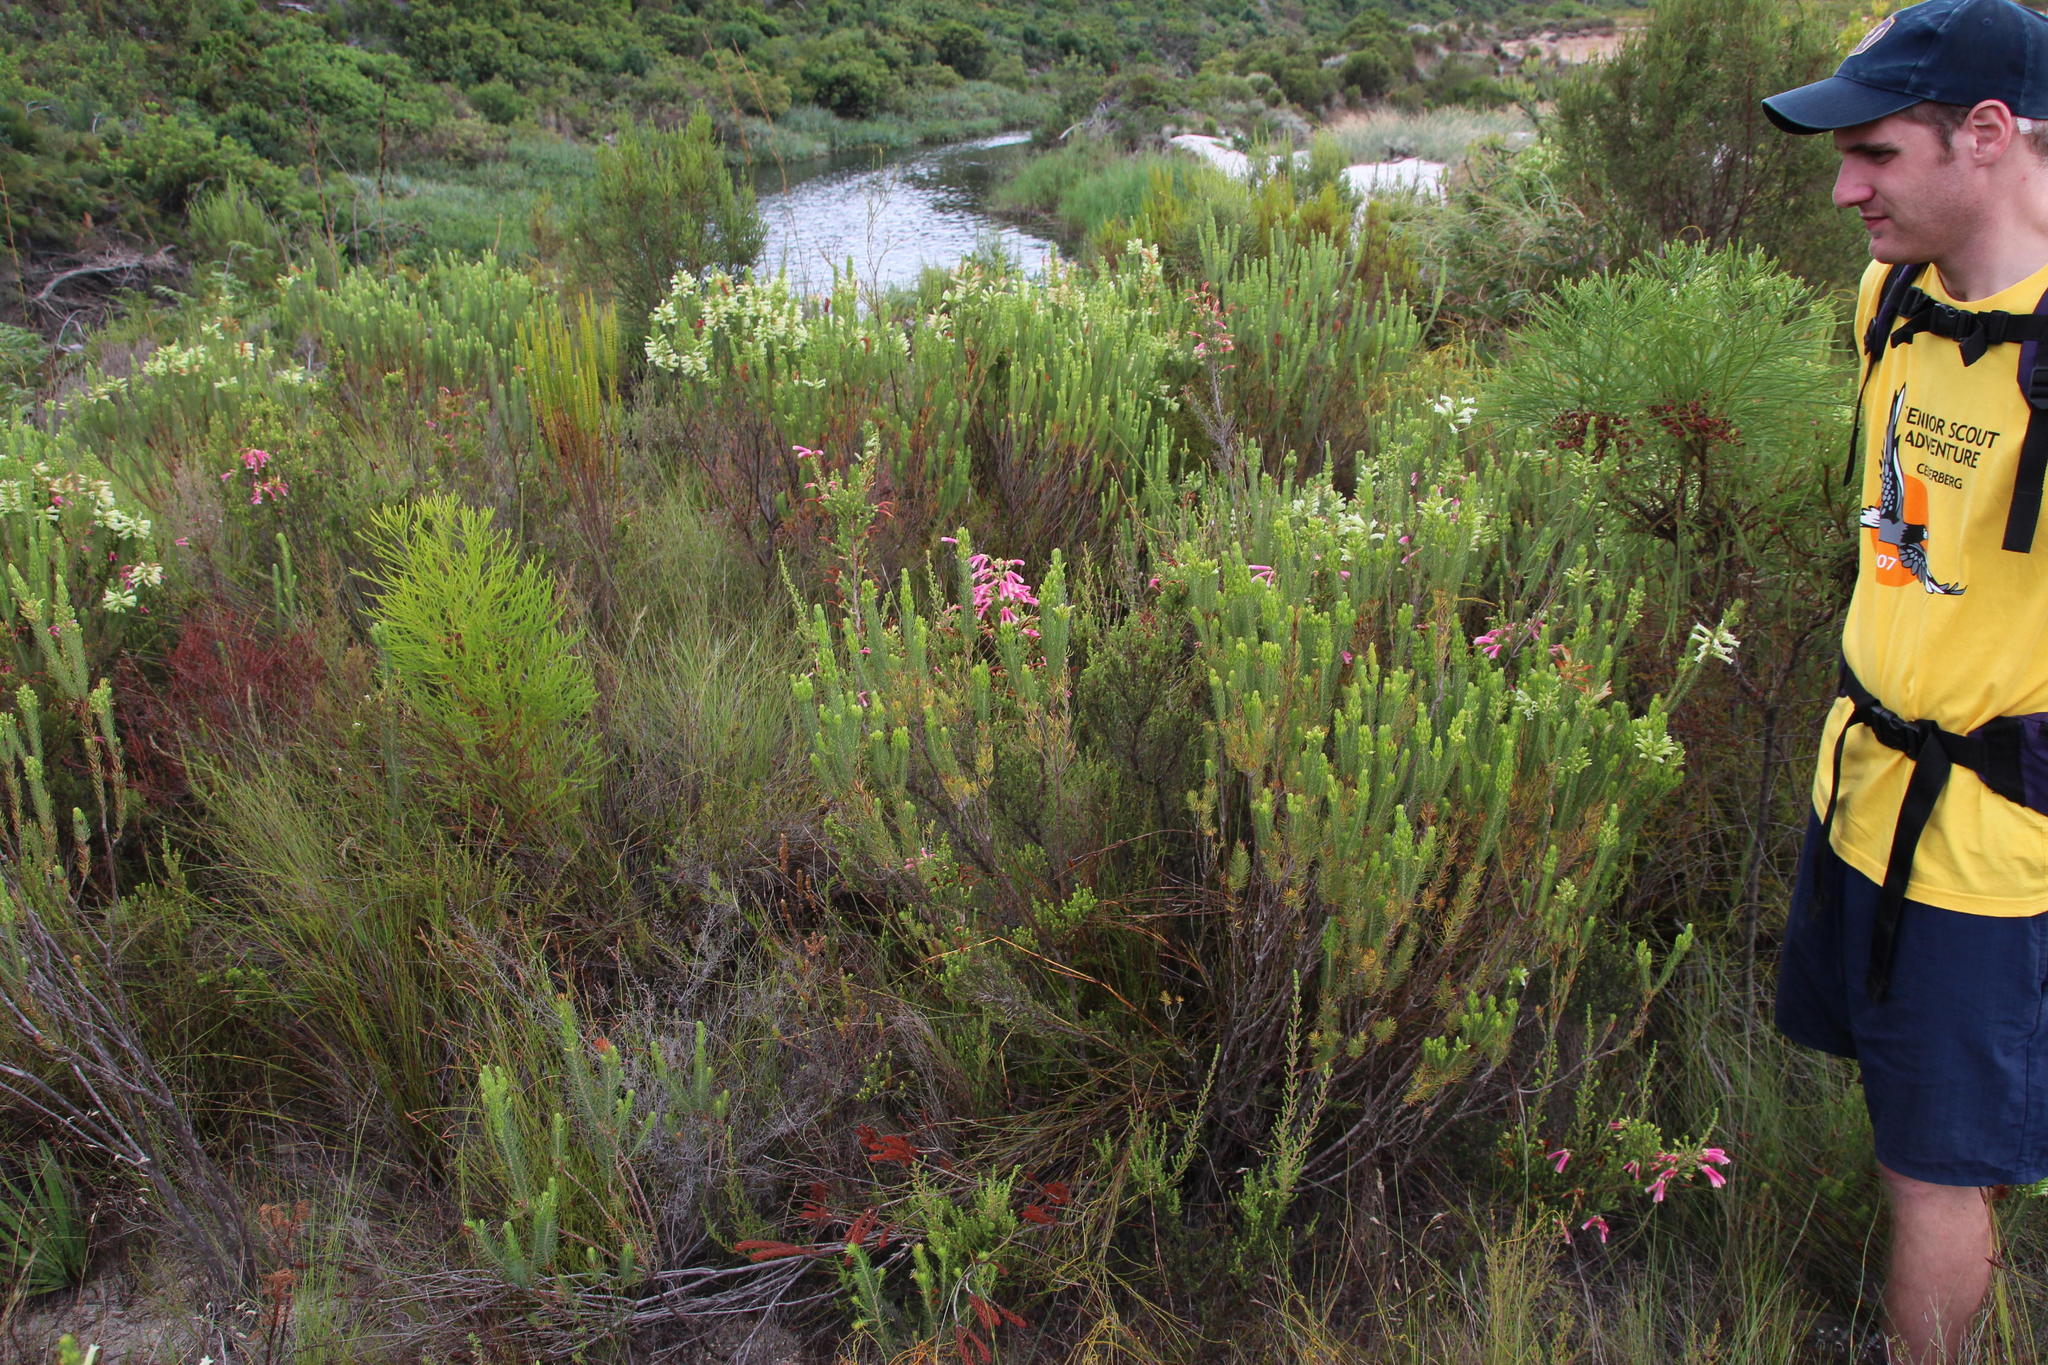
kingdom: Plantae
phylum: Tracheophyta
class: Magnoliopsida
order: Ericales
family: Ericaceae
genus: Erica
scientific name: Erica discolor
